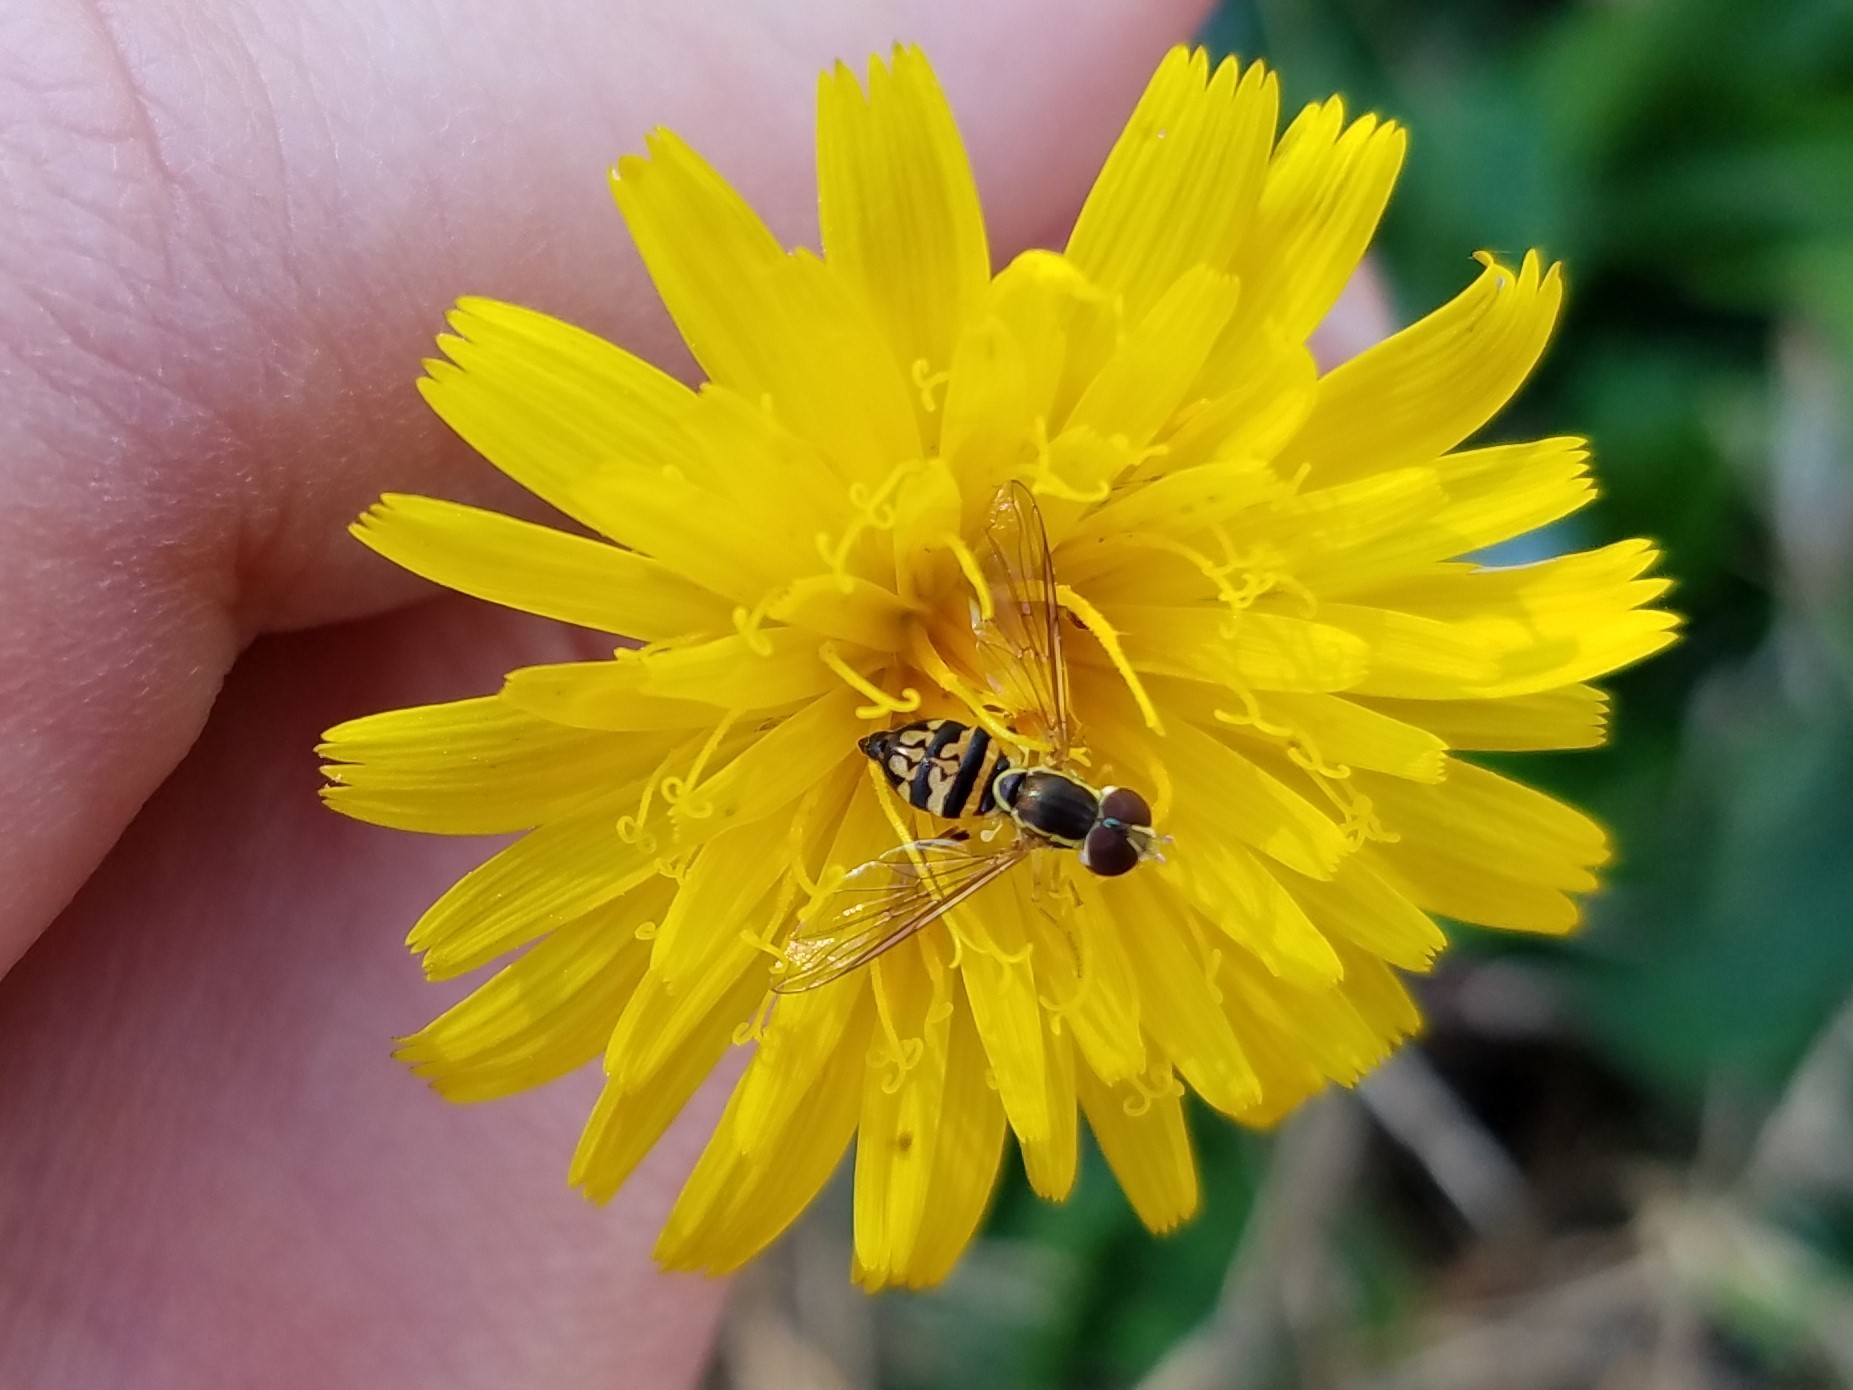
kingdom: Animalia
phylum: Arthropoda
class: Insecta
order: Diptera
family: Syrphidae
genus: Toxomerus
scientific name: Toxomerus geminatus
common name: Eastern calligrapher
